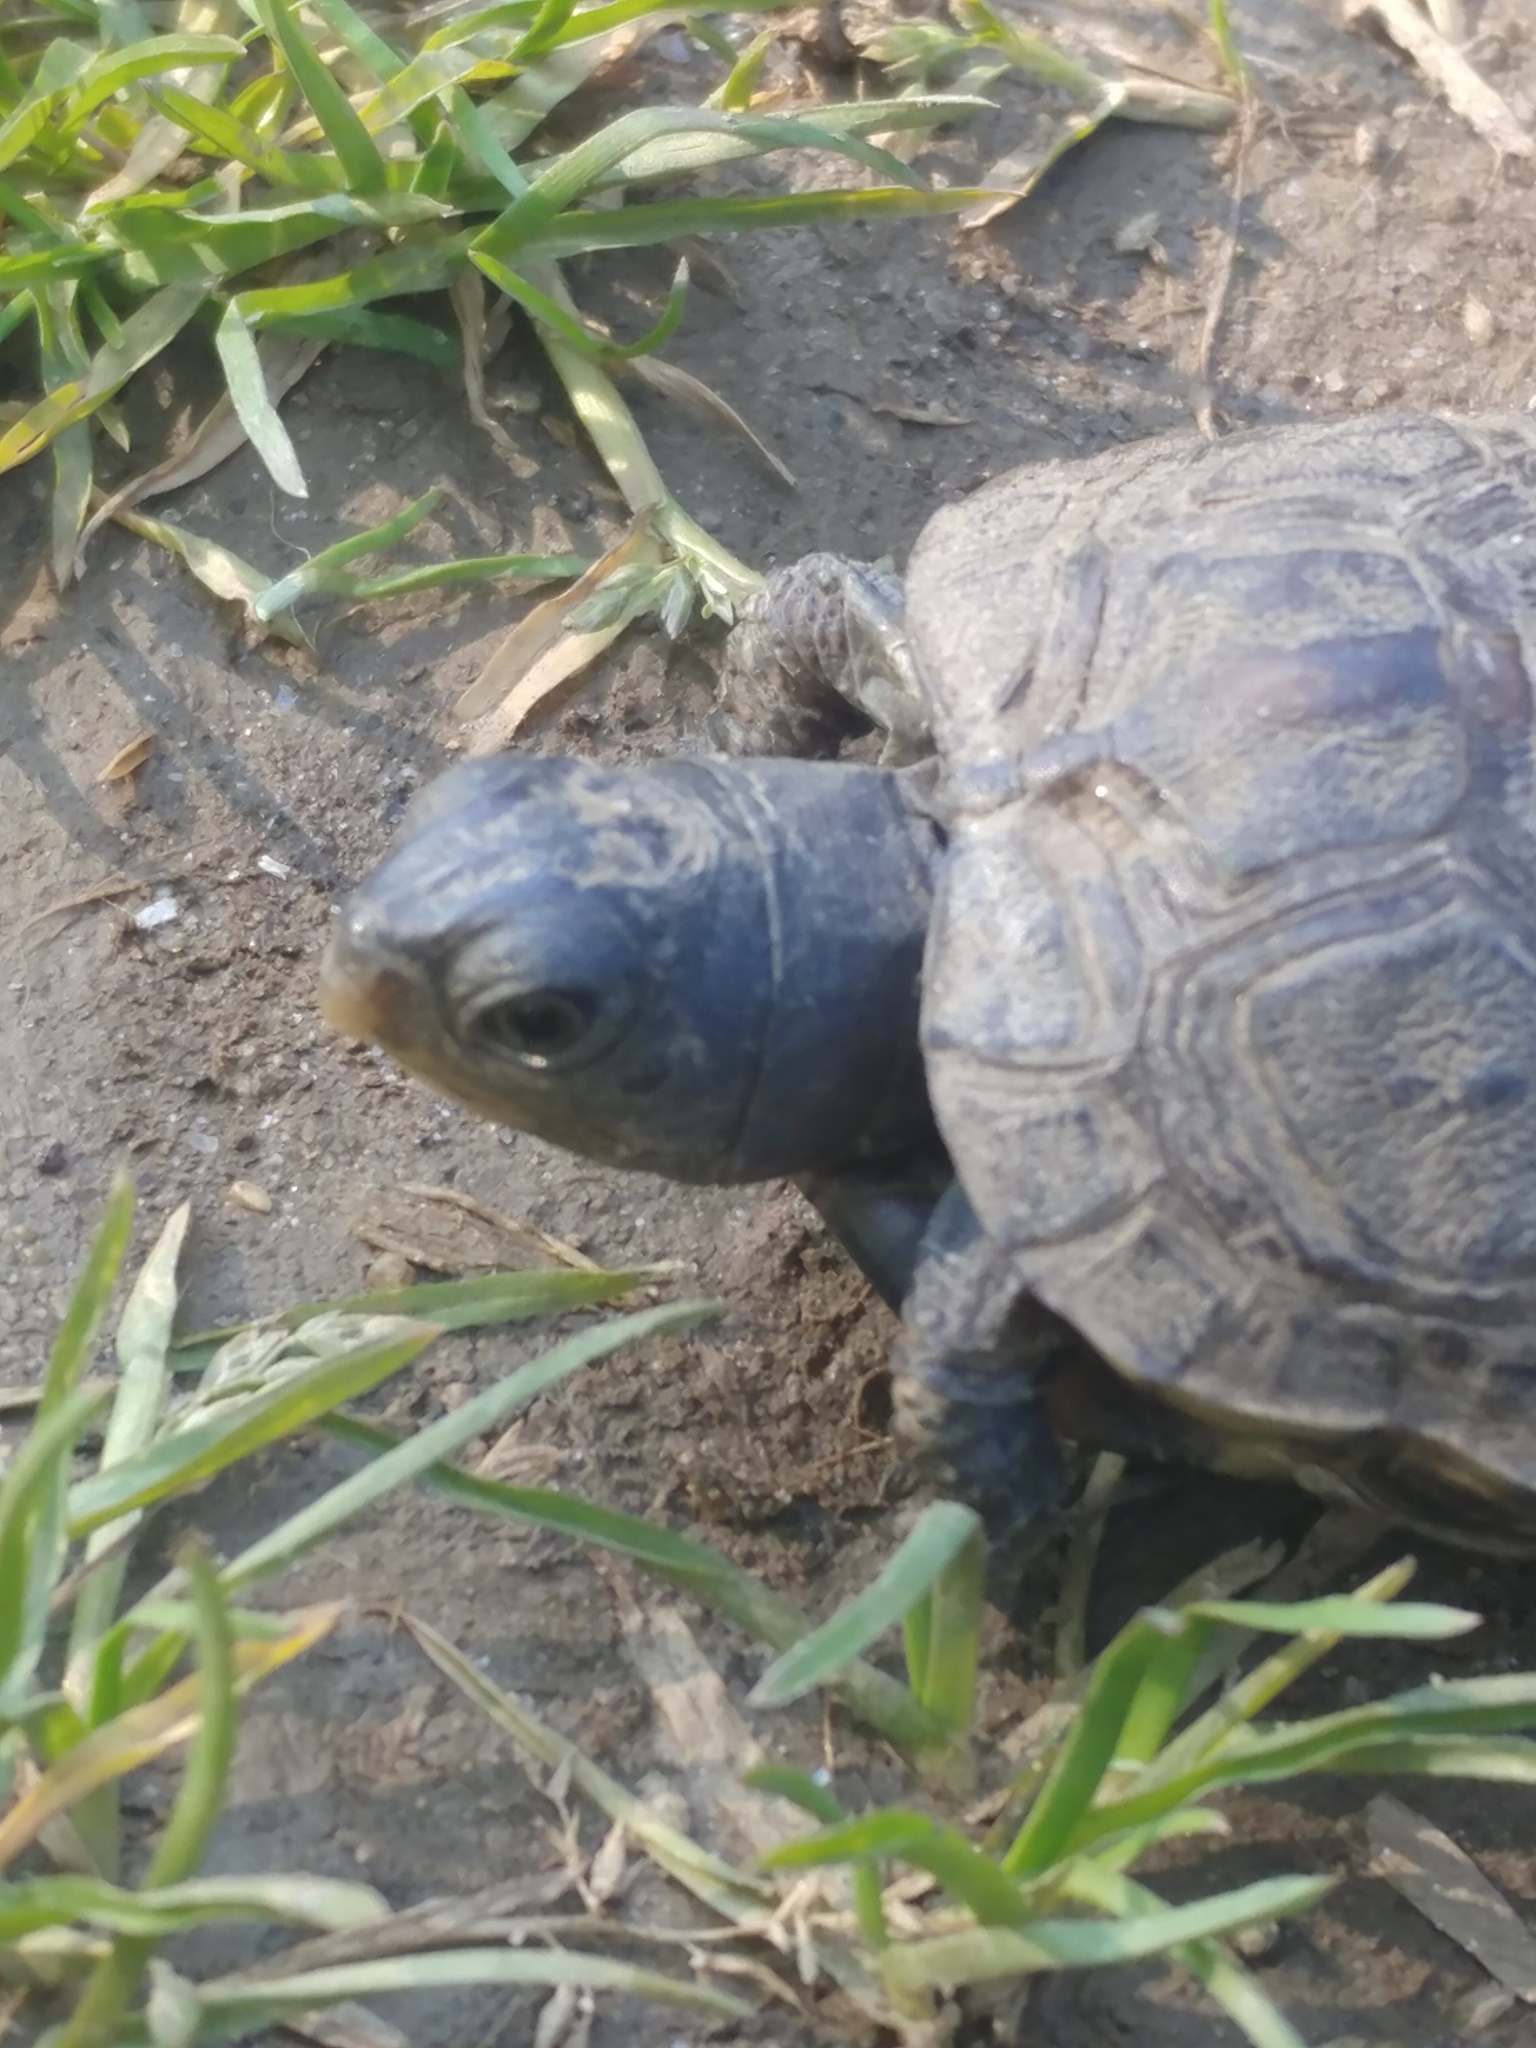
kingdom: Animalia
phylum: Chordata
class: Testudines
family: Emydidae
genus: Terrapene
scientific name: Terrapene carolina
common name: Common box turtle
